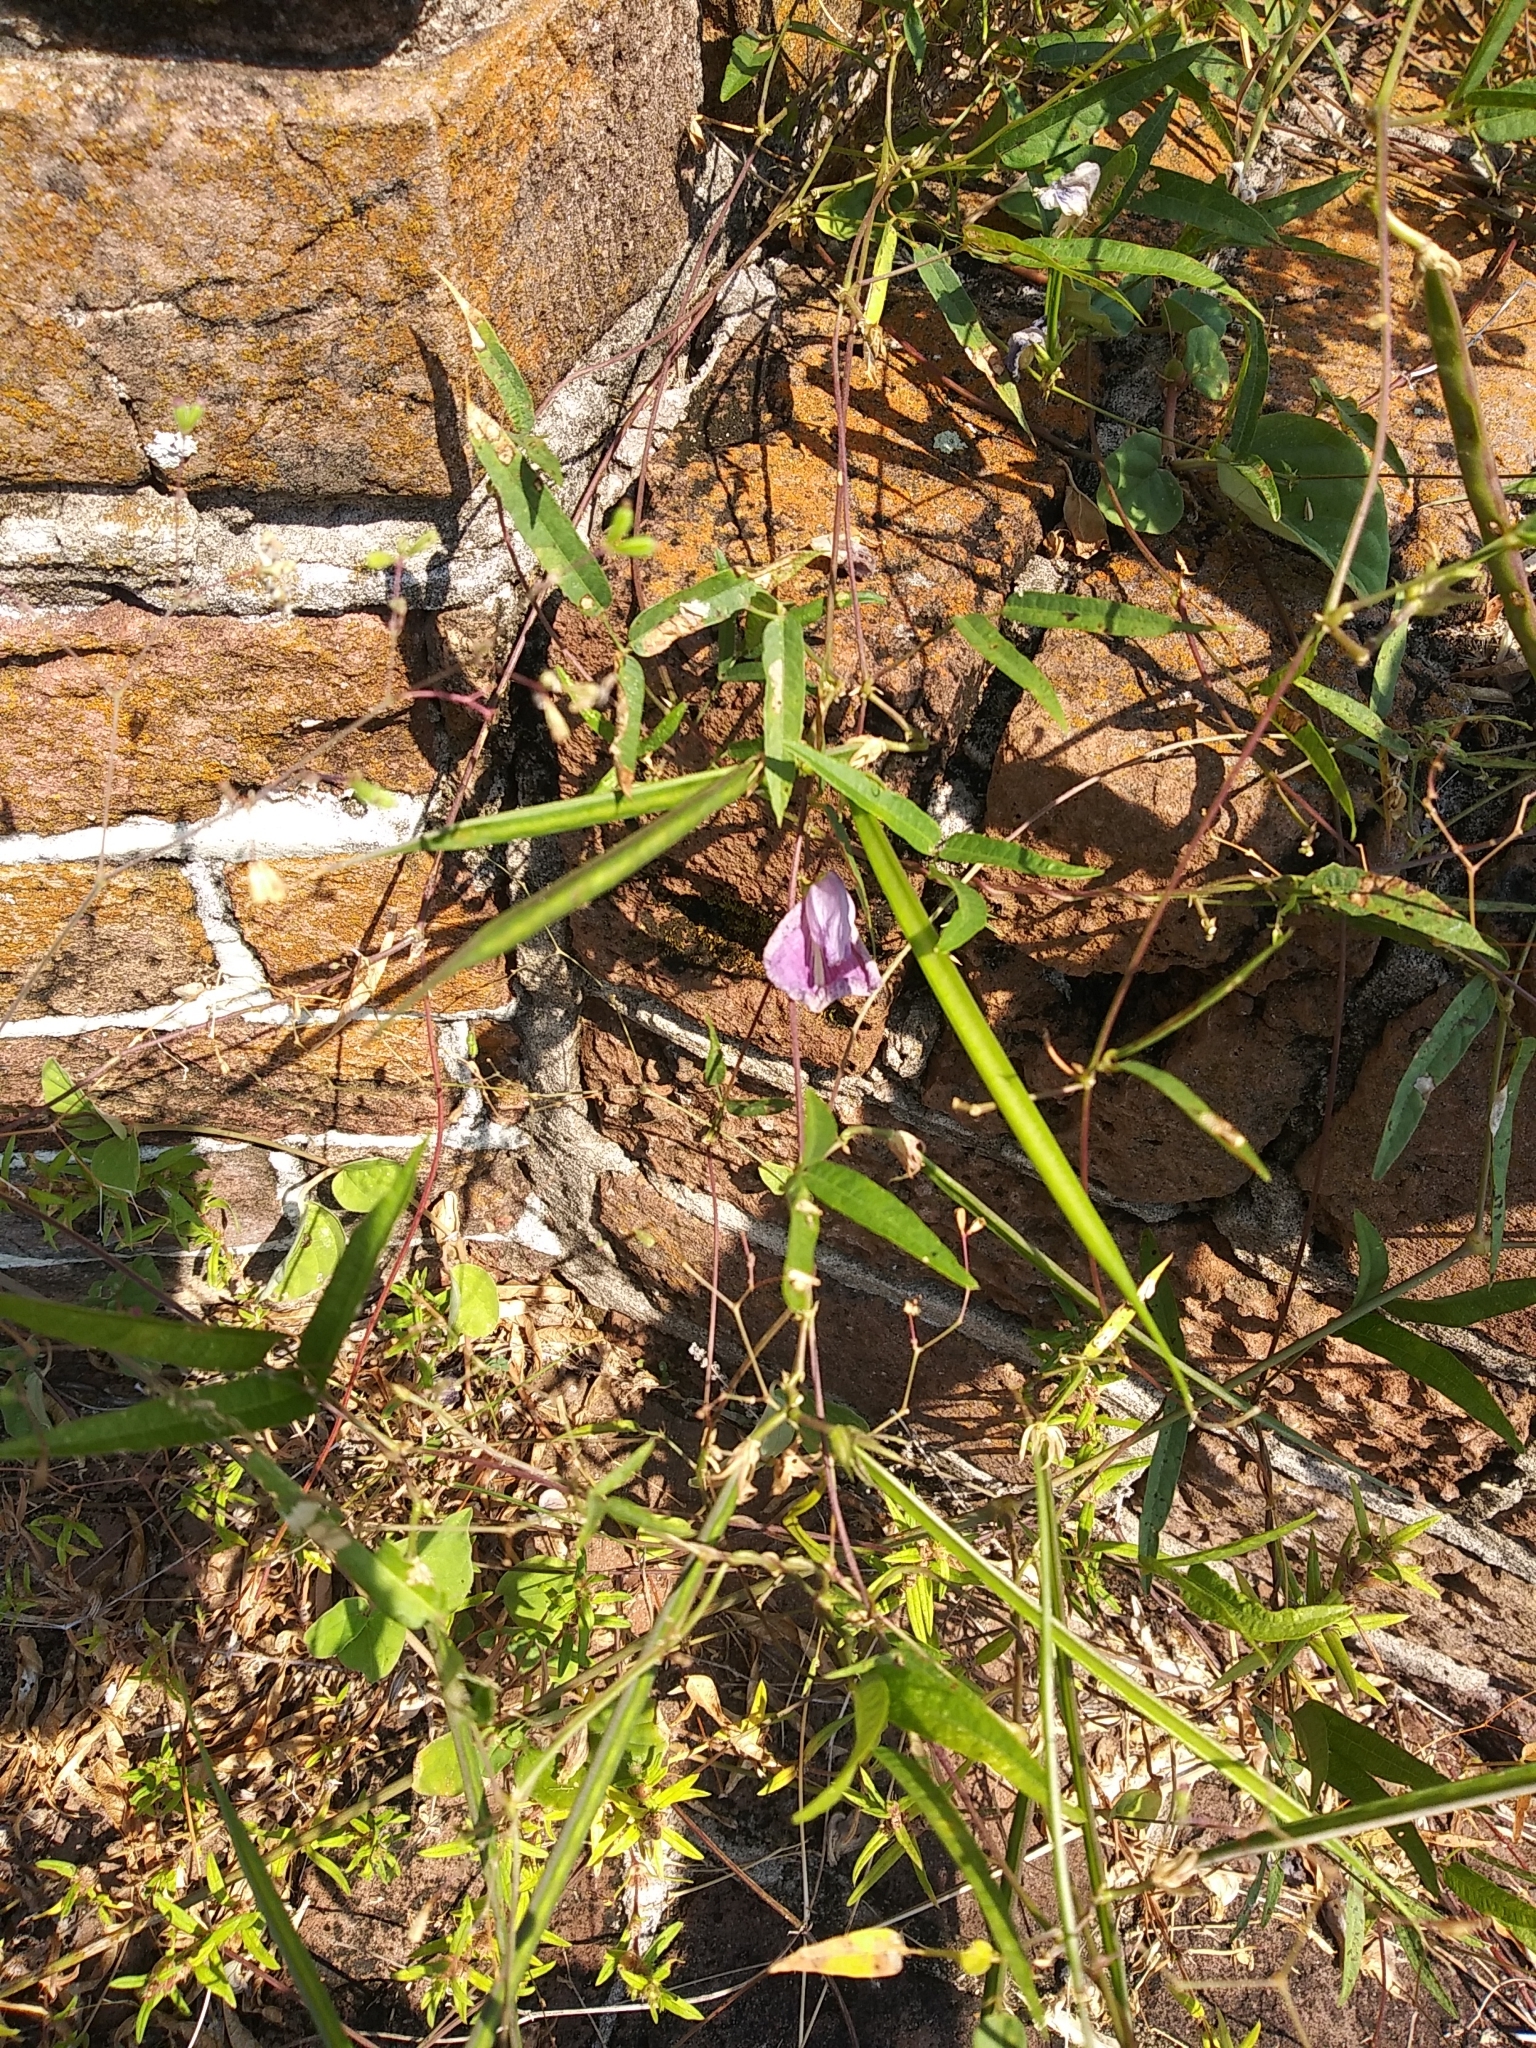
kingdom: Plantae
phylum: Tracheophyta
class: Magnoliopsida
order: Fabales
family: Fabaceae
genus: Centrosema
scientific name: Centrosema virginianum
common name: Butterfly-pea
